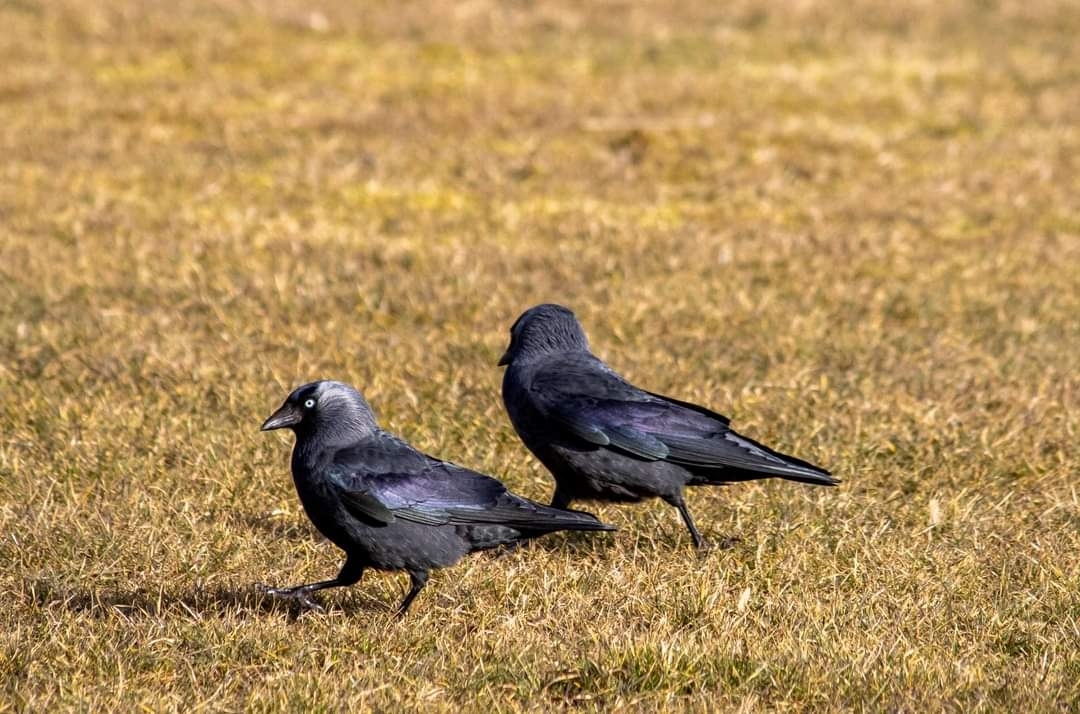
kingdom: Animalia
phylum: Chordata
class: Aves
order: Passeriformes
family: Corvidae
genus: Coloeus
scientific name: Coloeus monedula
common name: Western jackdaw
